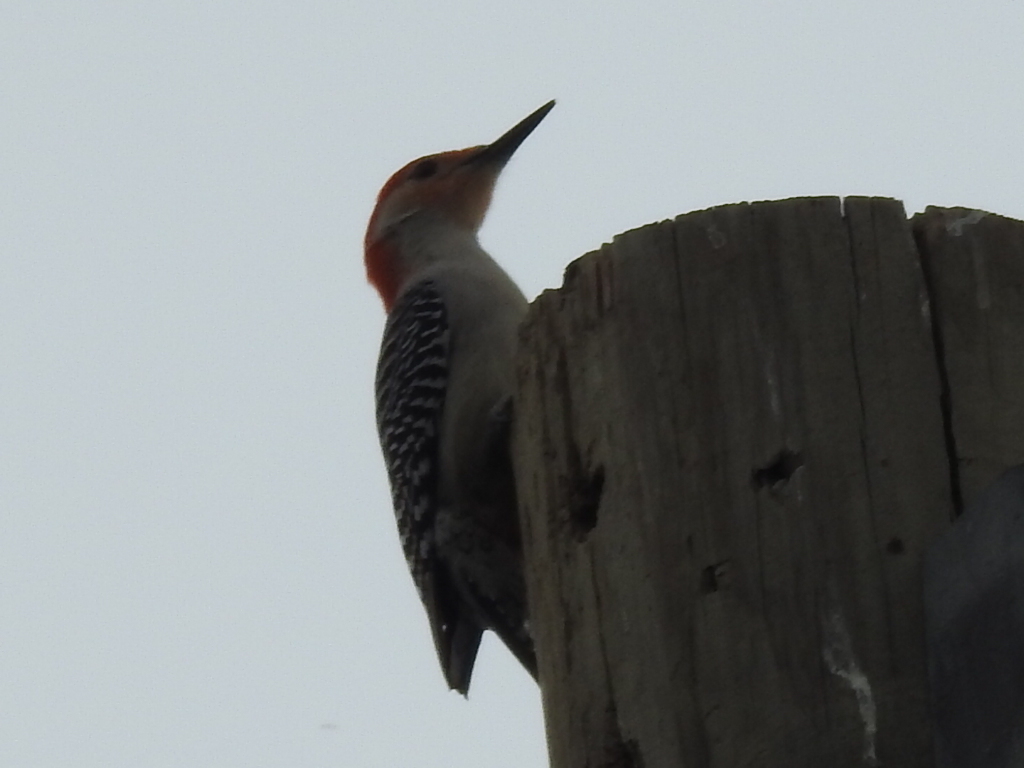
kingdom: Animalia
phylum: Chordata
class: Aves
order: Piciformes
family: Picidae
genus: Melanerpes
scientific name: Melanerpes carolinus
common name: Red-bellied woodpecker
